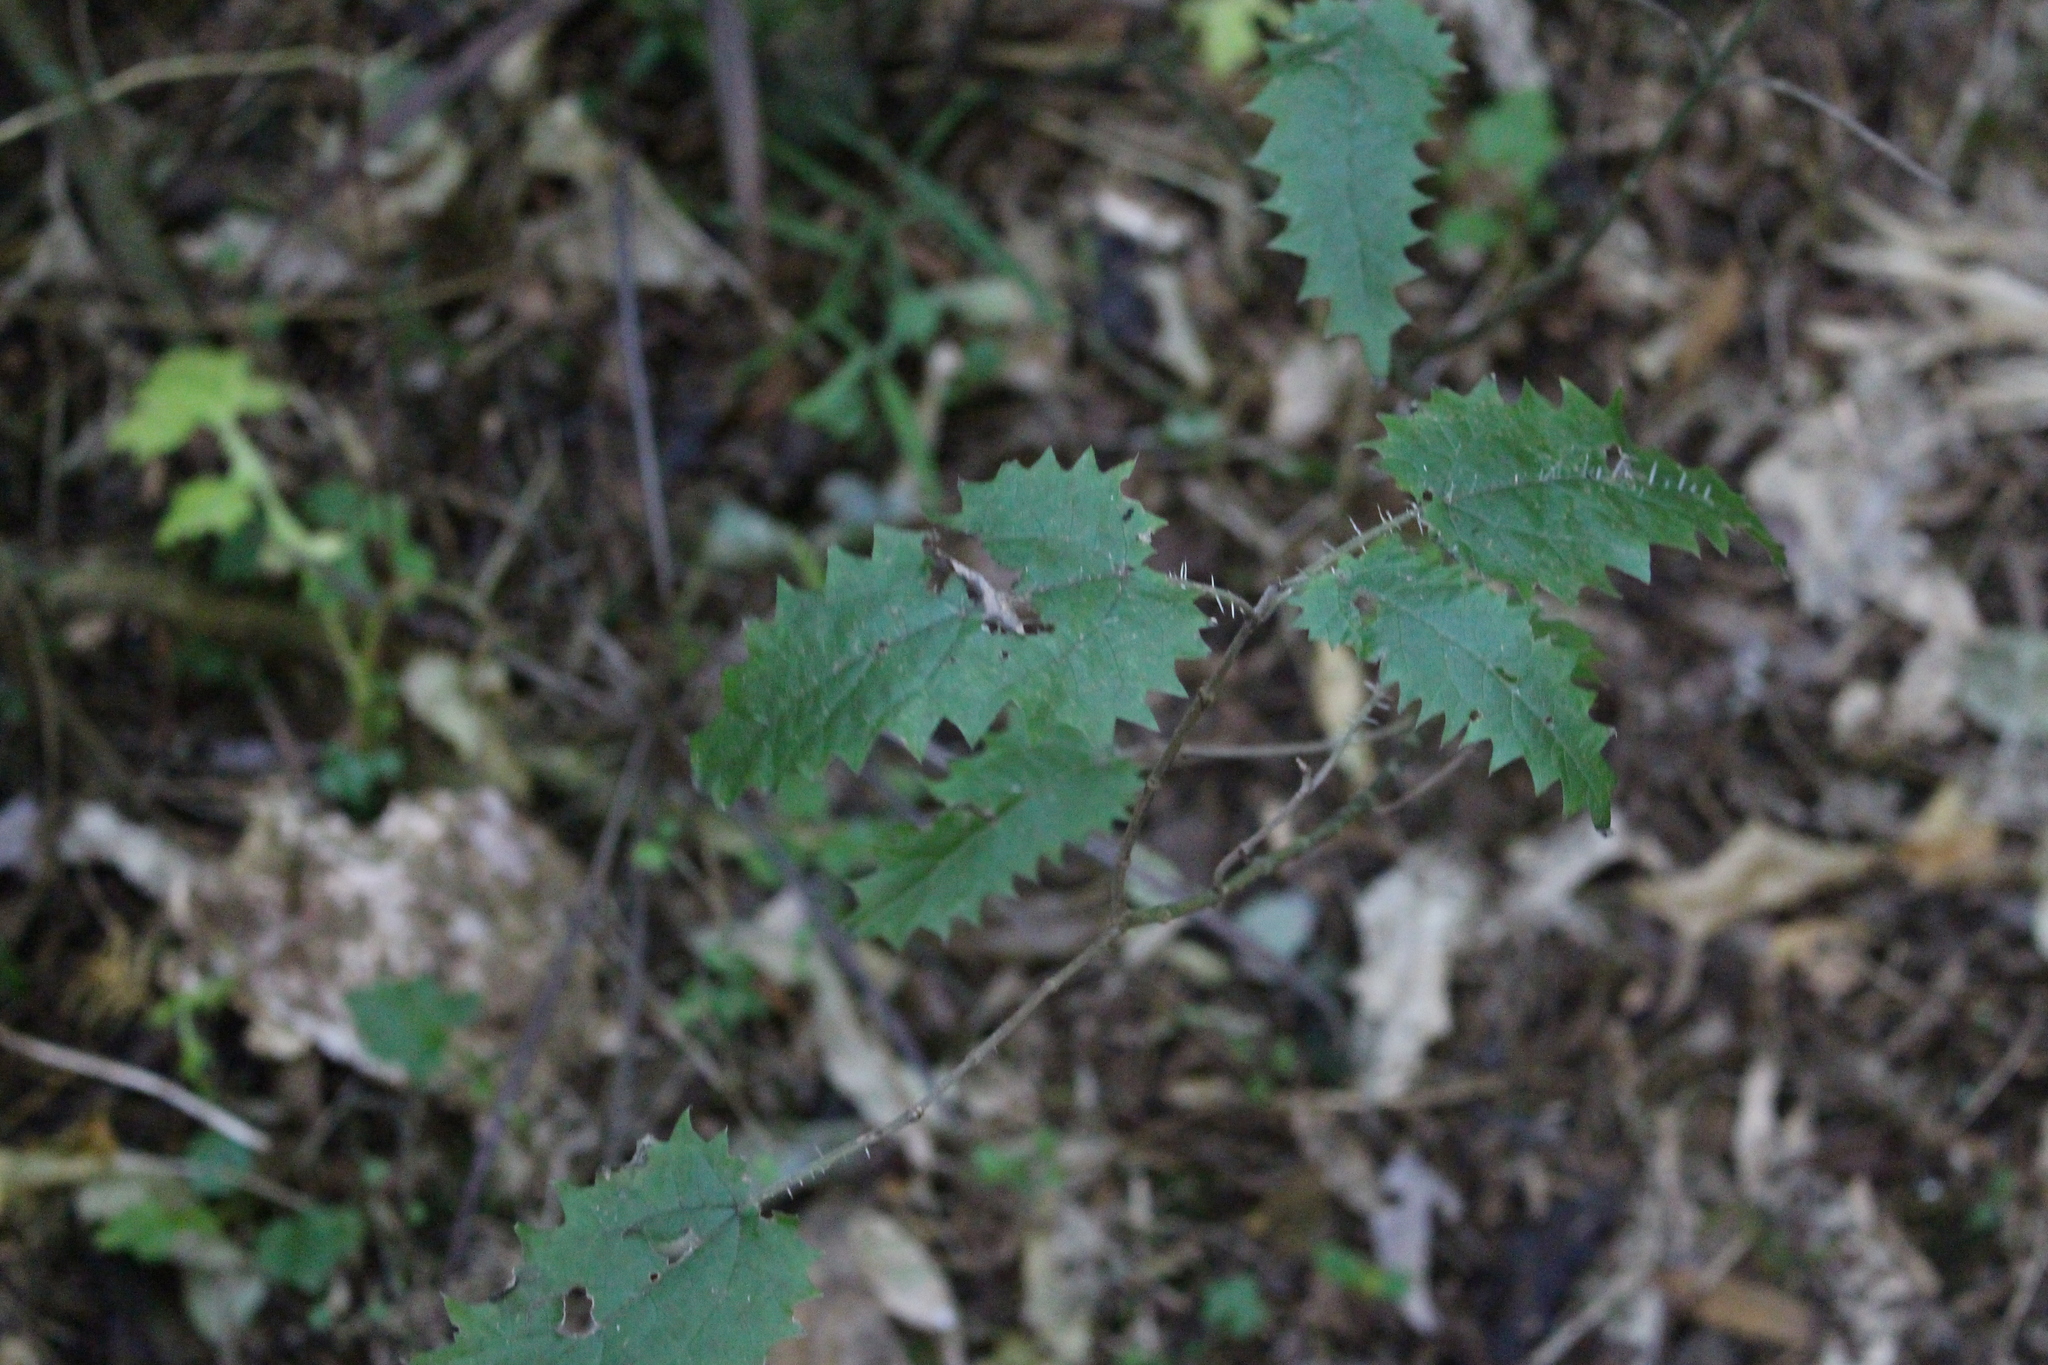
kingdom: Plantae
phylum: Tracheophyta
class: Magnoliopsida
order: Rosales
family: Urticaceae
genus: Urtica
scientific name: Urtica ferox
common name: Tree nettle
